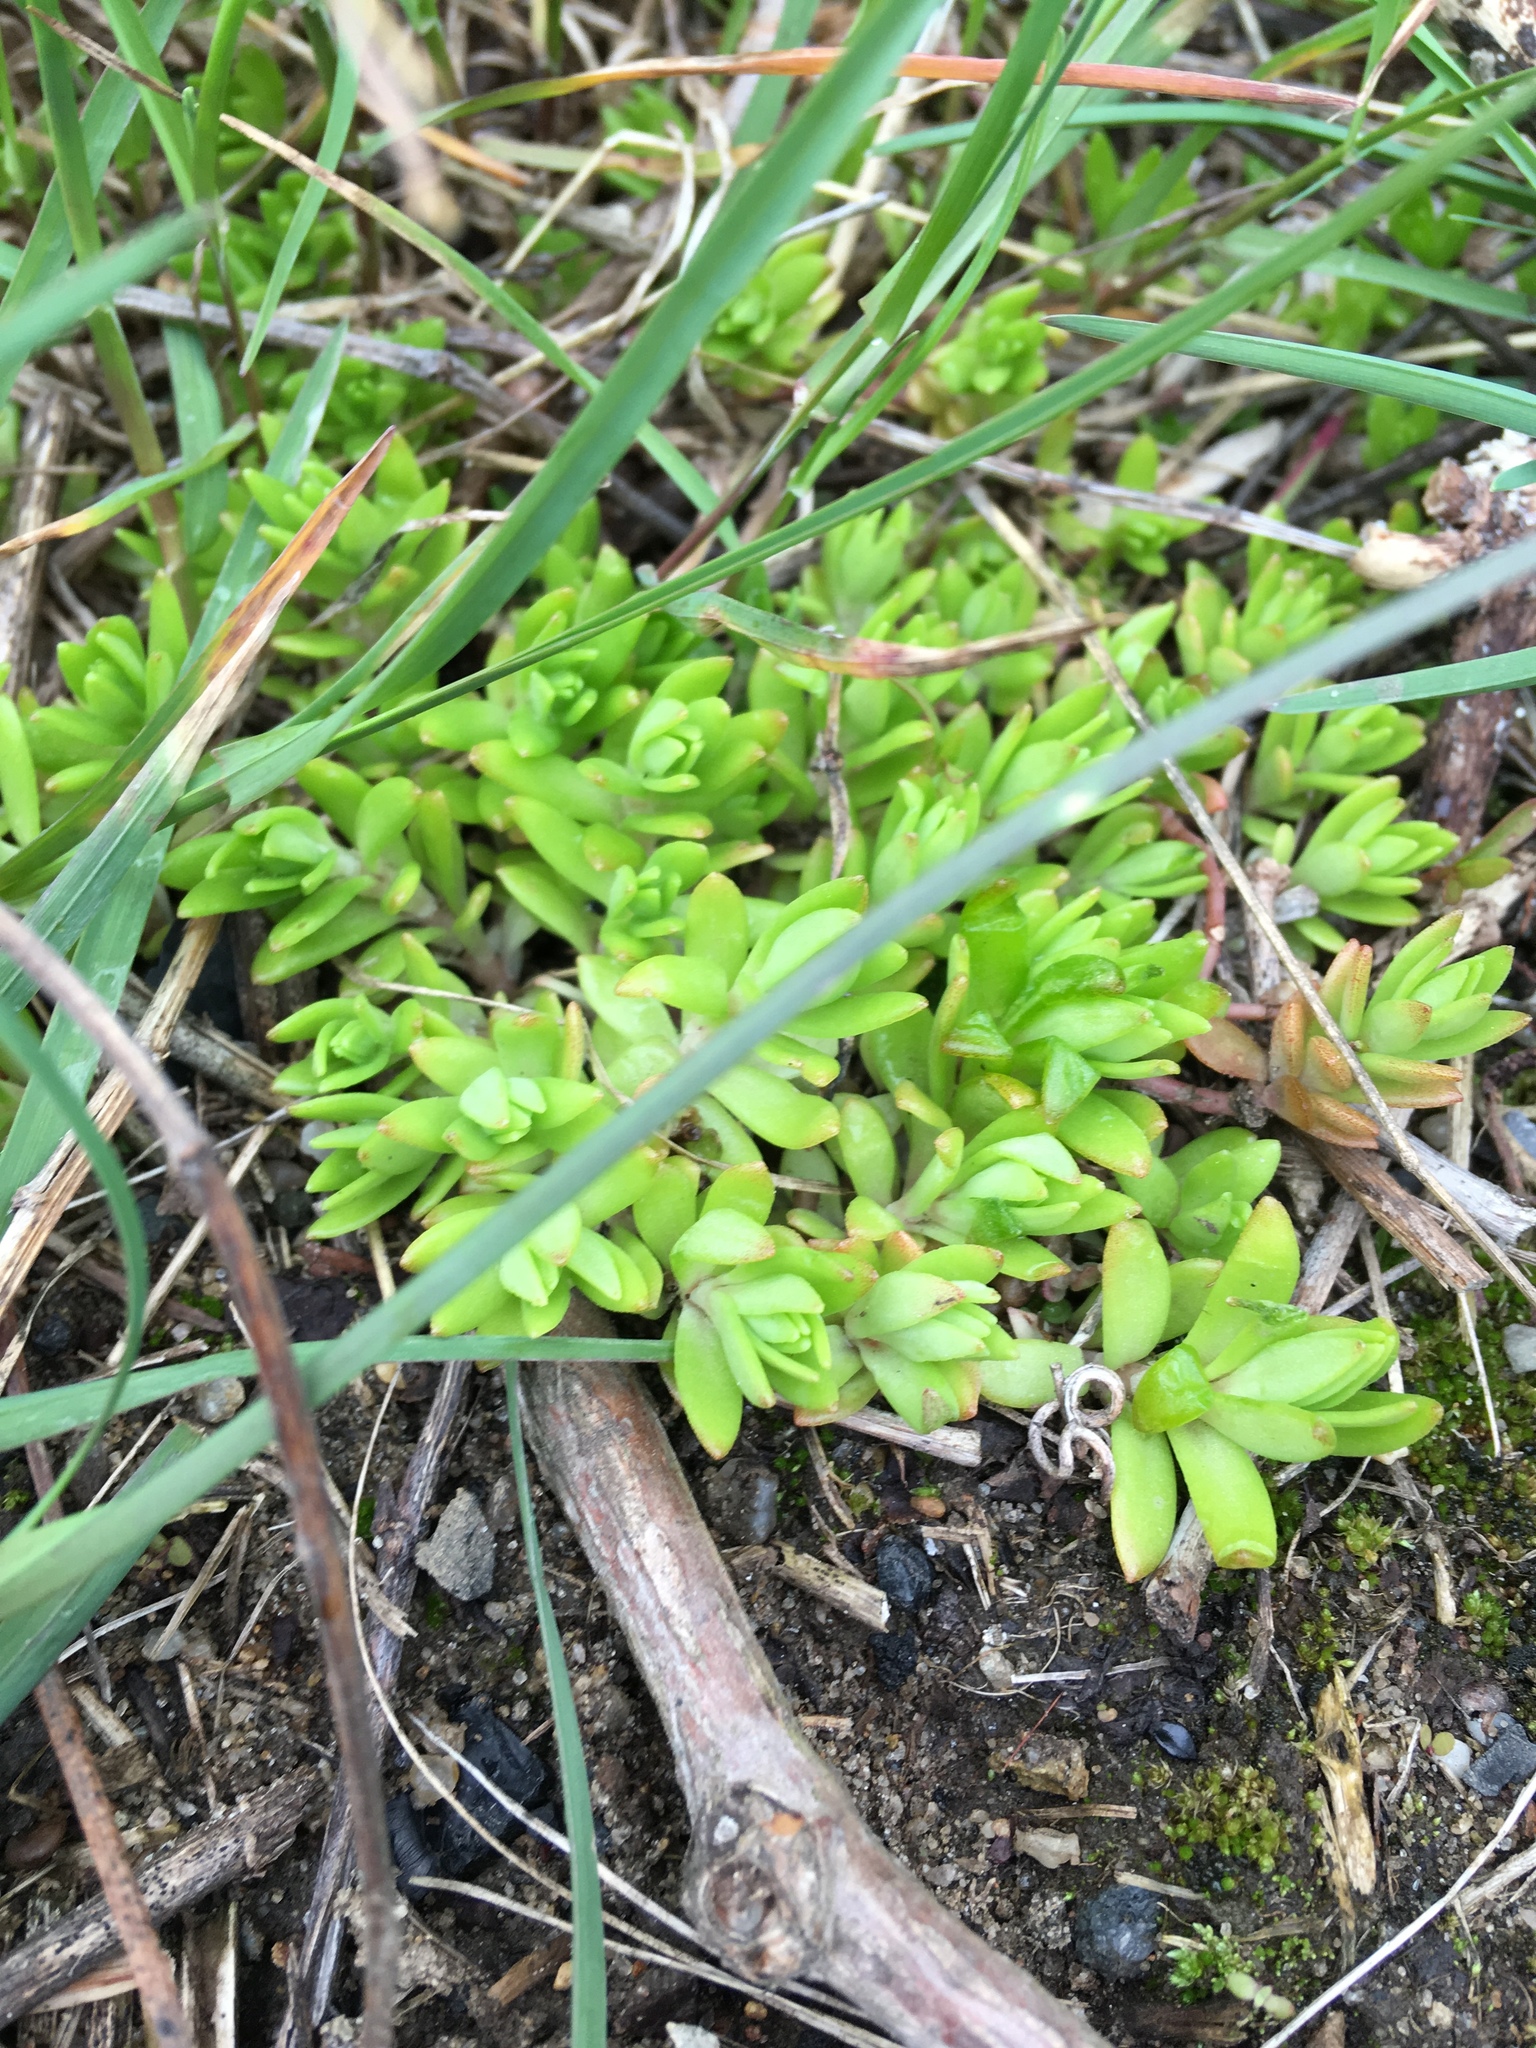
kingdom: Plantae
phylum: Tracheophyta
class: Magnoliopsida
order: Saxifragales
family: Crassulaceae
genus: Sedum
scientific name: Sedum sarmentosum
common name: Stringy stonecrop
